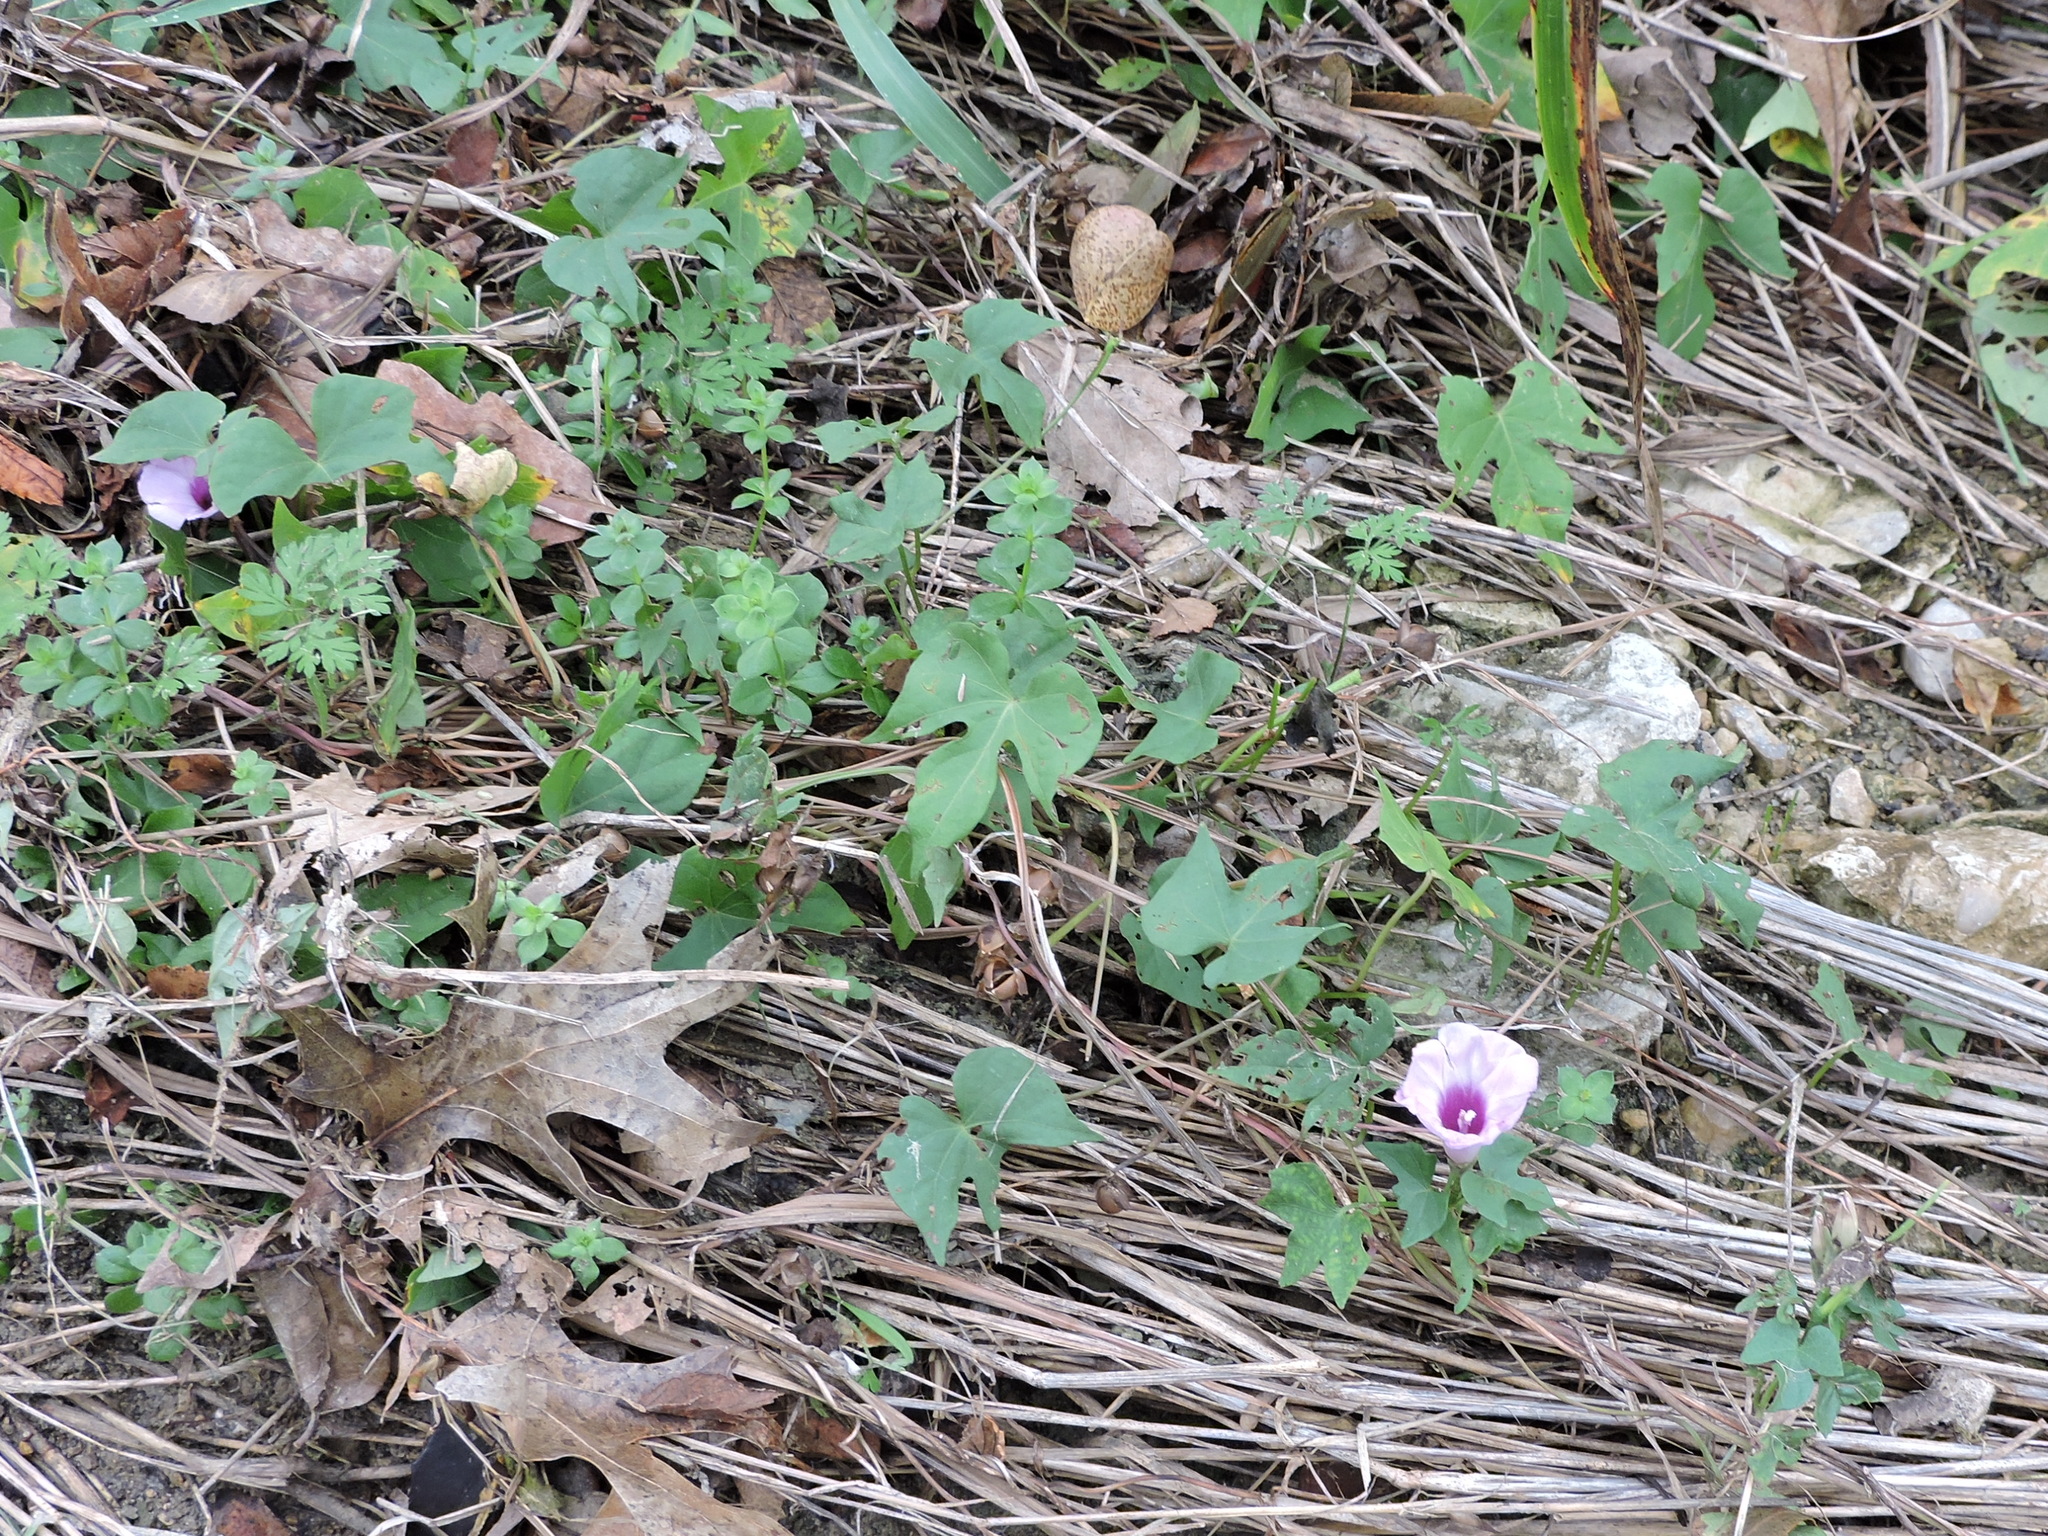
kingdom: Plantae
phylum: Tracheophyta
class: Magnoliopsida
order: Solanales
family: Convolvulaceae
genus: Ipomoea
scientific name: Ipomoea cordatotriloba
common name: Cotton morning glory
